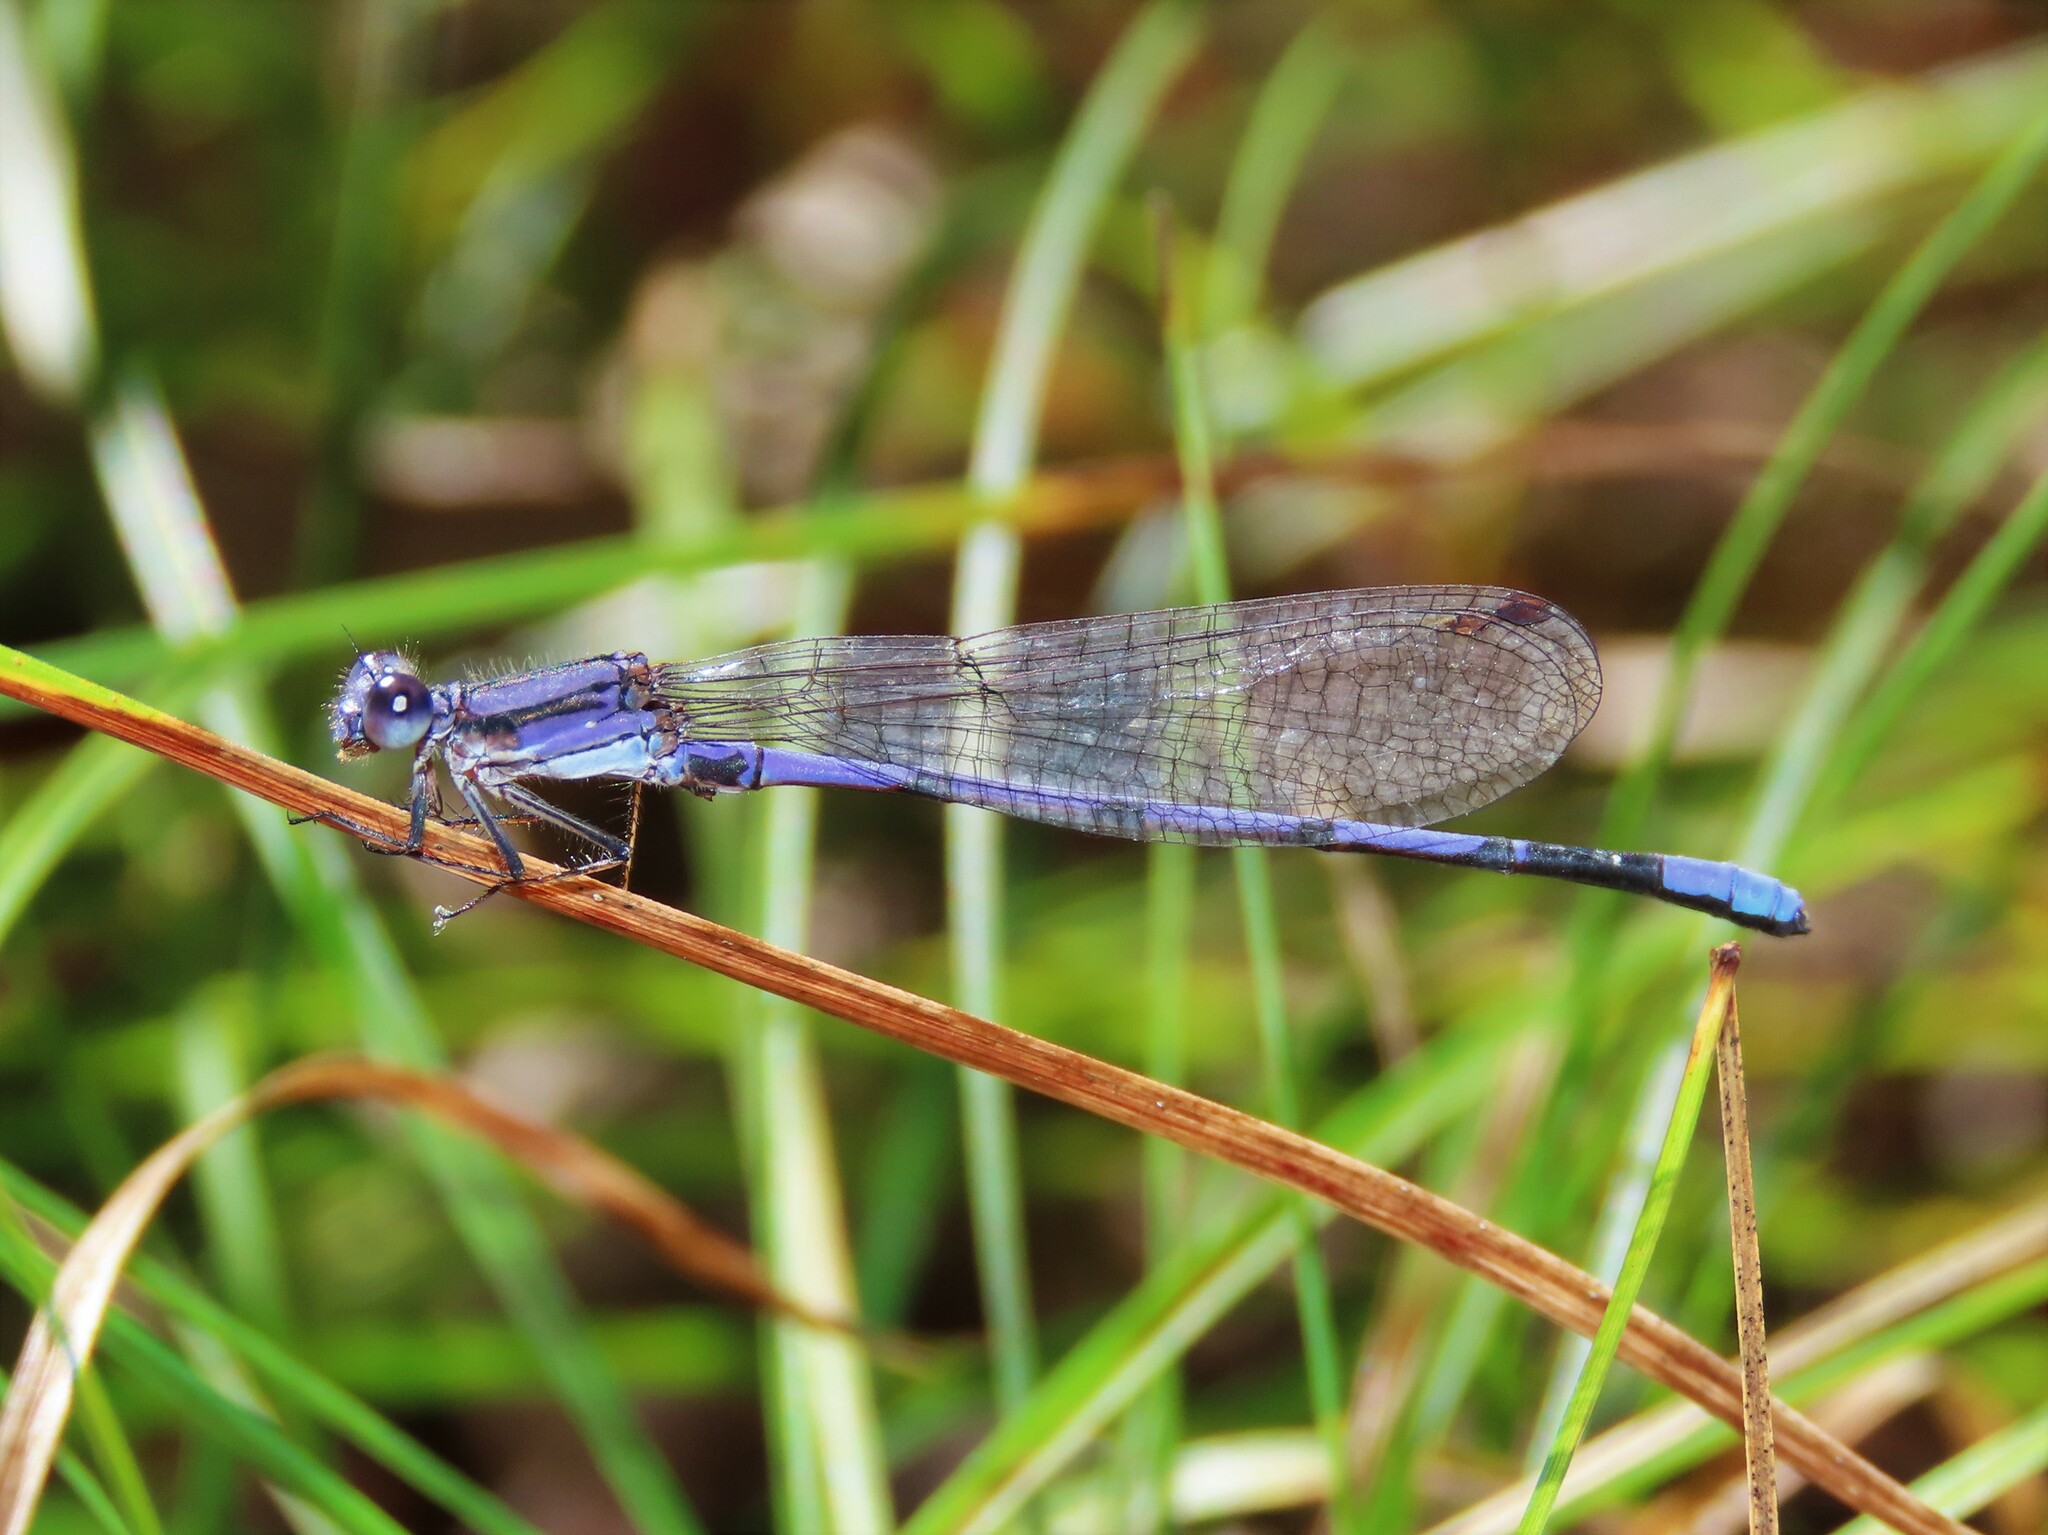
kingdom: Animalia
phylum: Arthropoda
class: Insecta
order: Odonata
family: Coenagrionidae
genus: Argia
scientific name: Argia fumipennis
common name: Variable dancer
